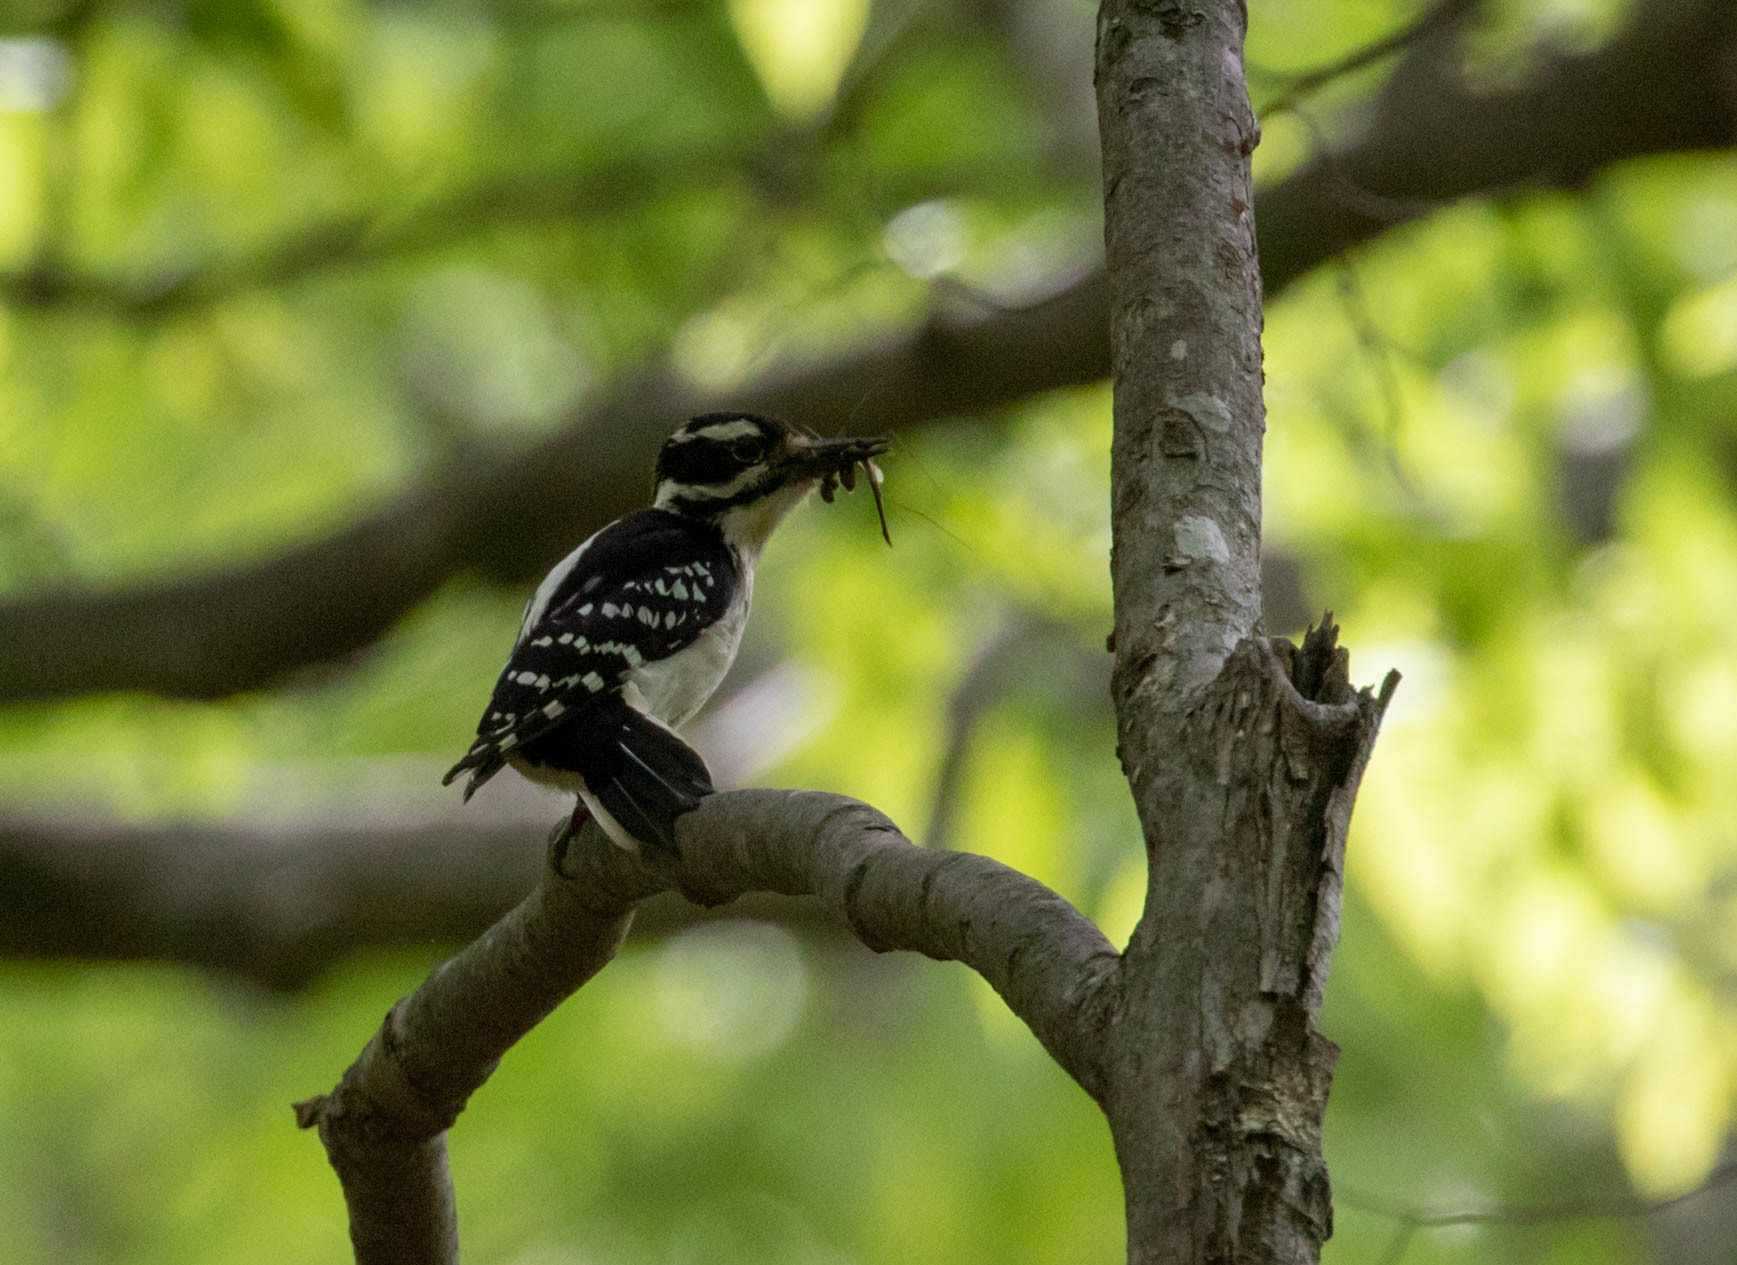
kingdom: Animalia
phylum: Chordata
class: Aves
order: Piciformes
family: Picidae
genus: Leuconotopicus
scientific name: Leuconotopicus villosus
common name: Hairy woodpecker
